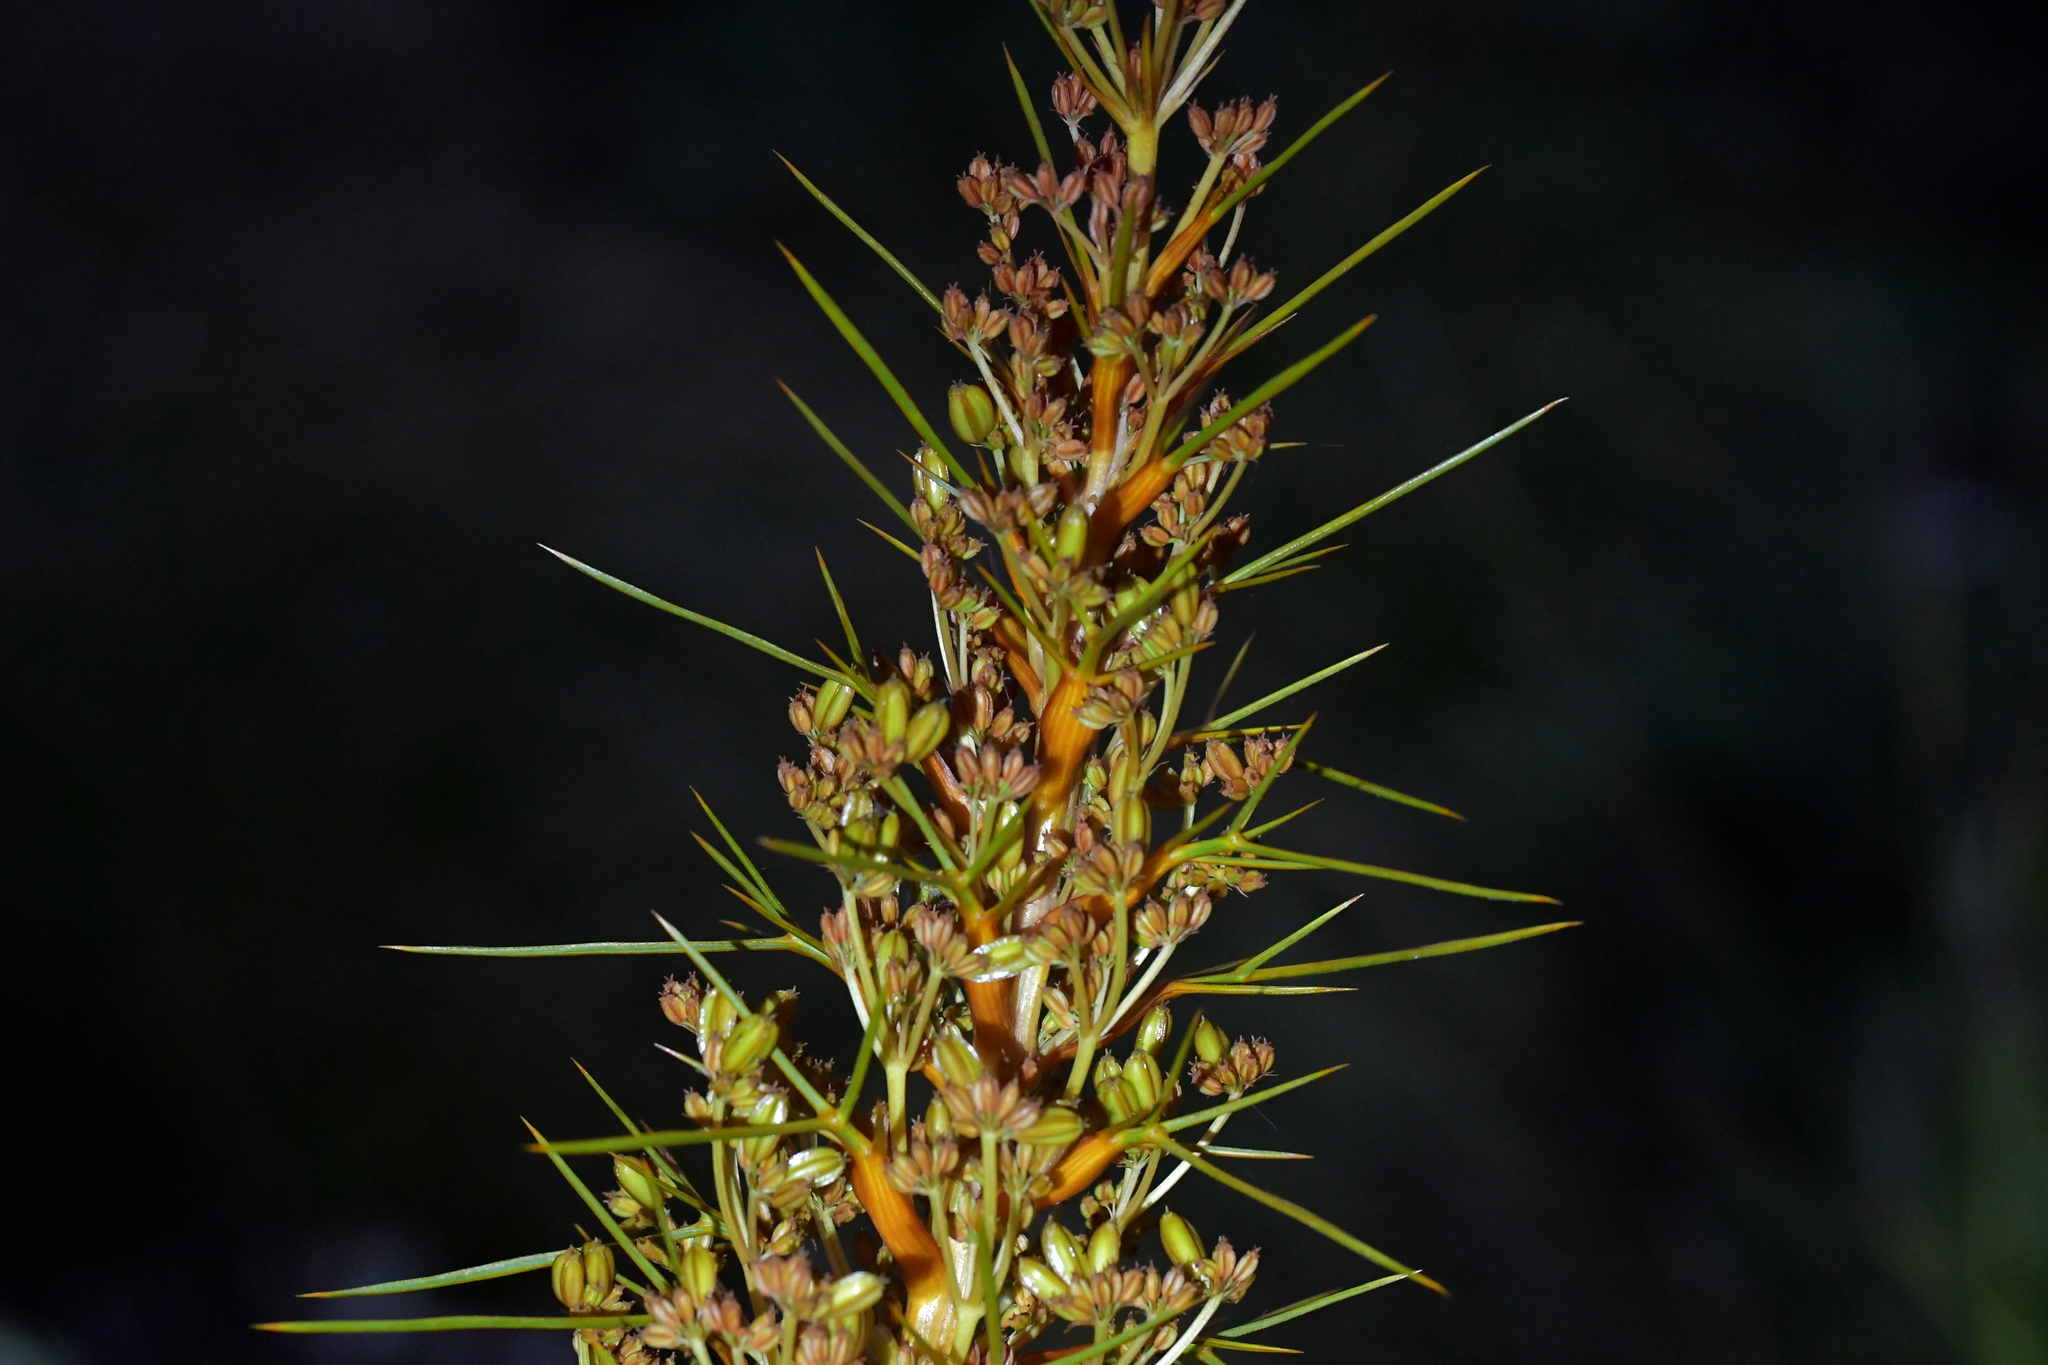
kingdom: Plantae
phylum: Tracheophyta
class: Magnoliopsida
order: Apiales
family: Apiaceae
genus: Aciphylla
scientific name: Aciphylla colensoi
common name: Colenso's spaniard
